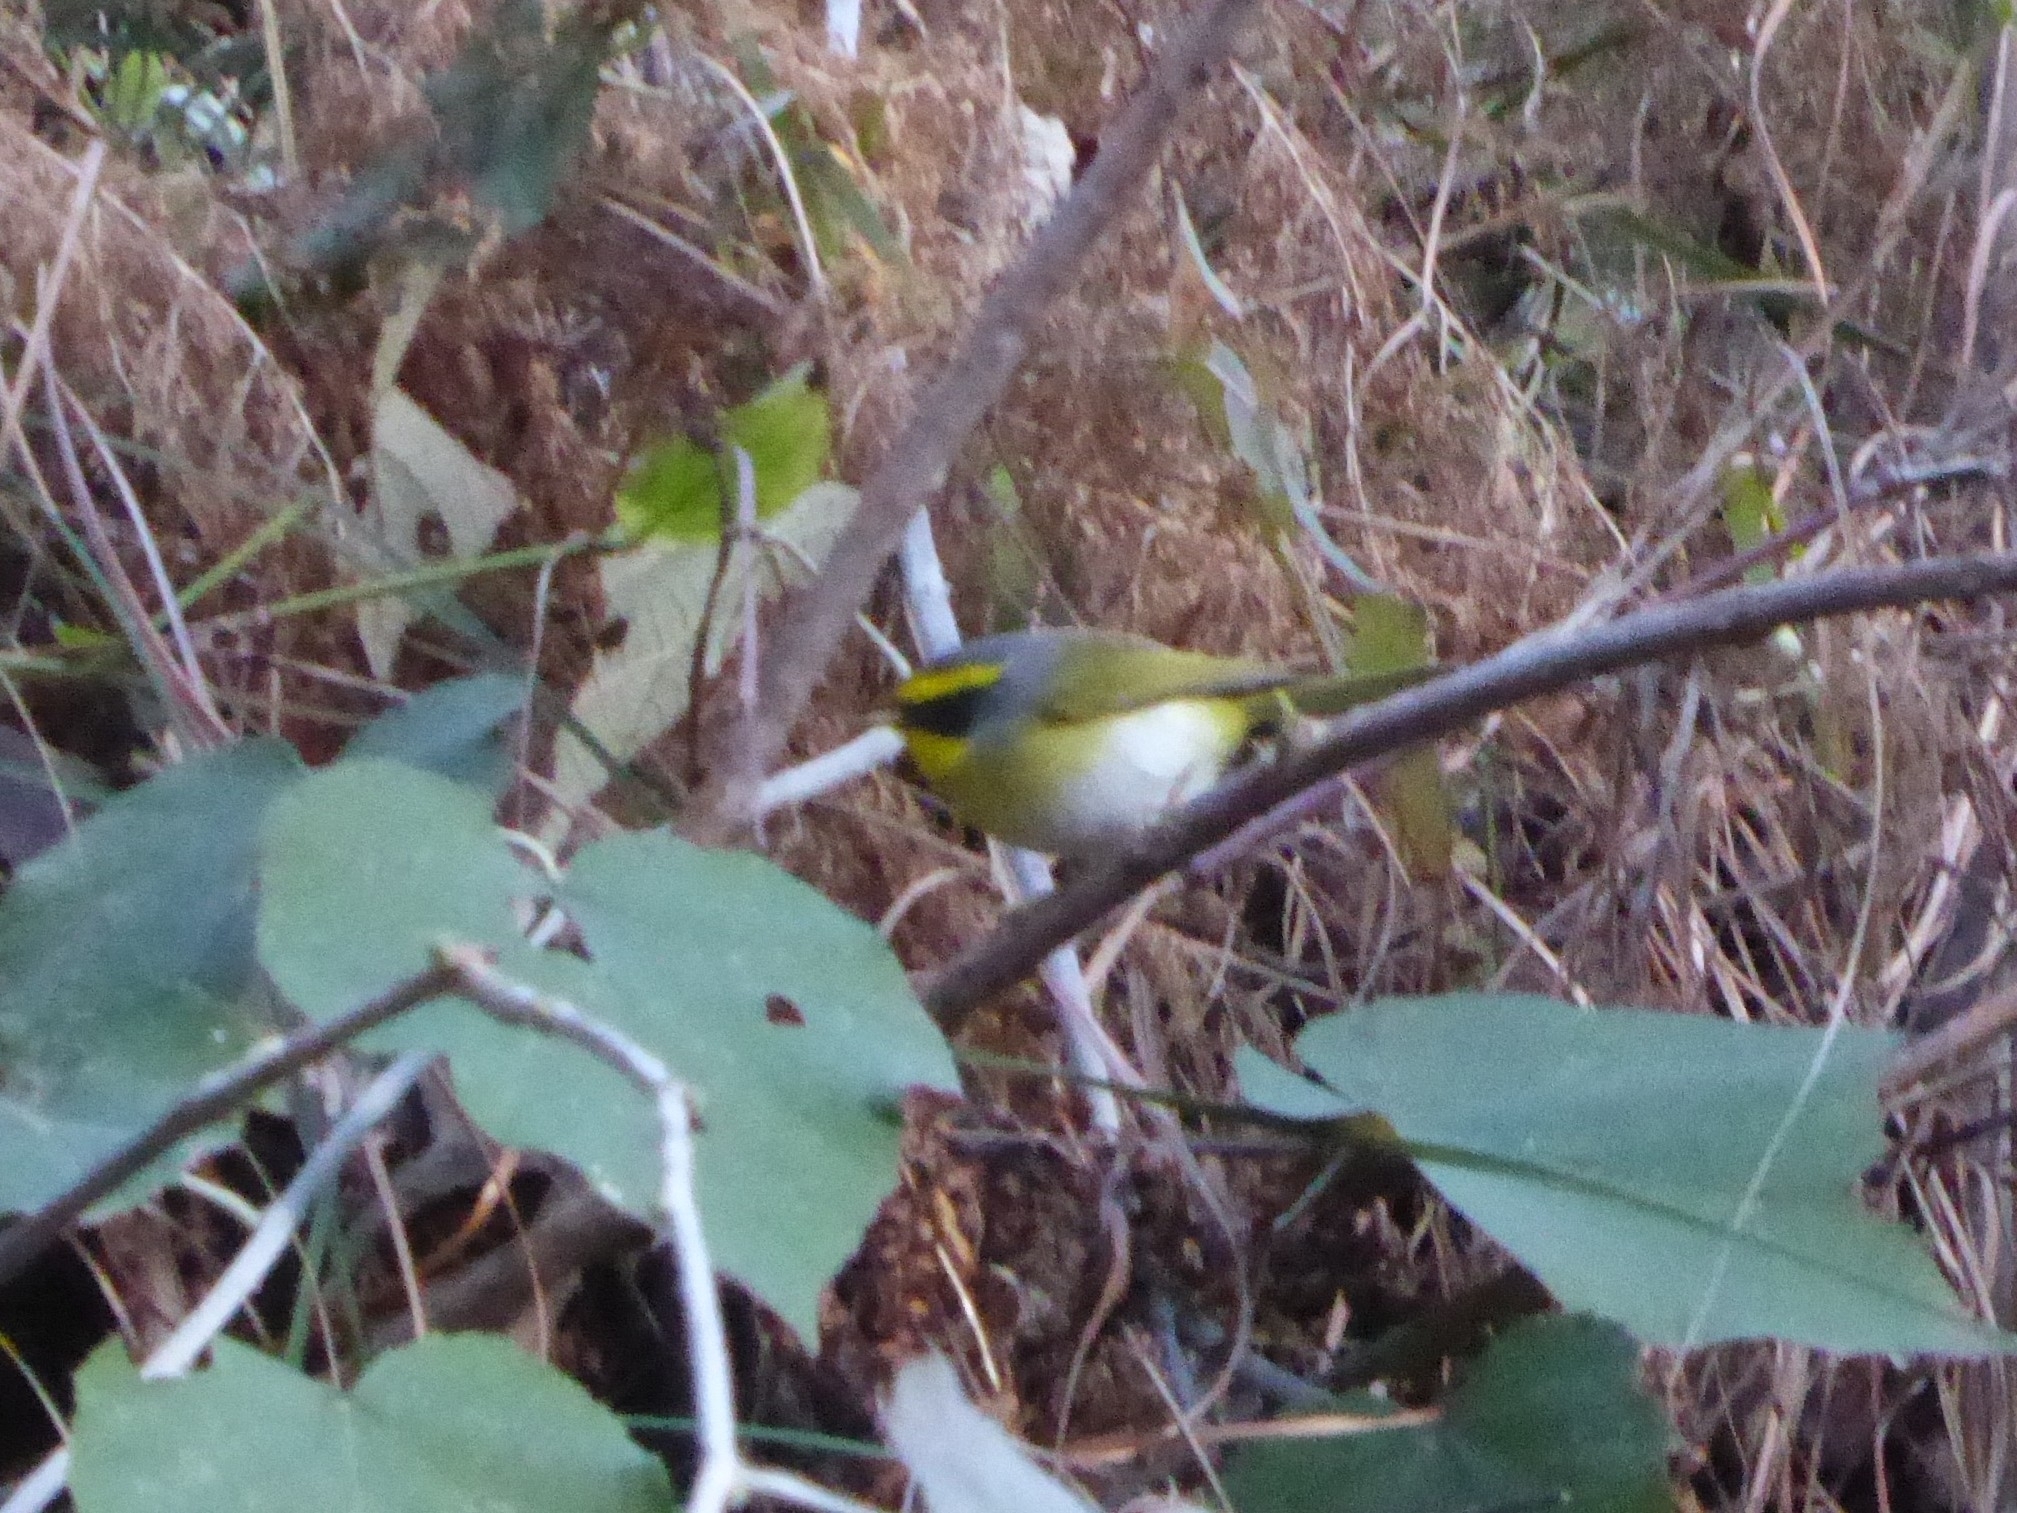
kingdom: Animalia
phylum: Chordata
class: Aves
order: Passeriformes
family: Cettiidae
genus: Abroscopus
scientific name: Abroscopus schisticeps
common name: Black-faced warbler
